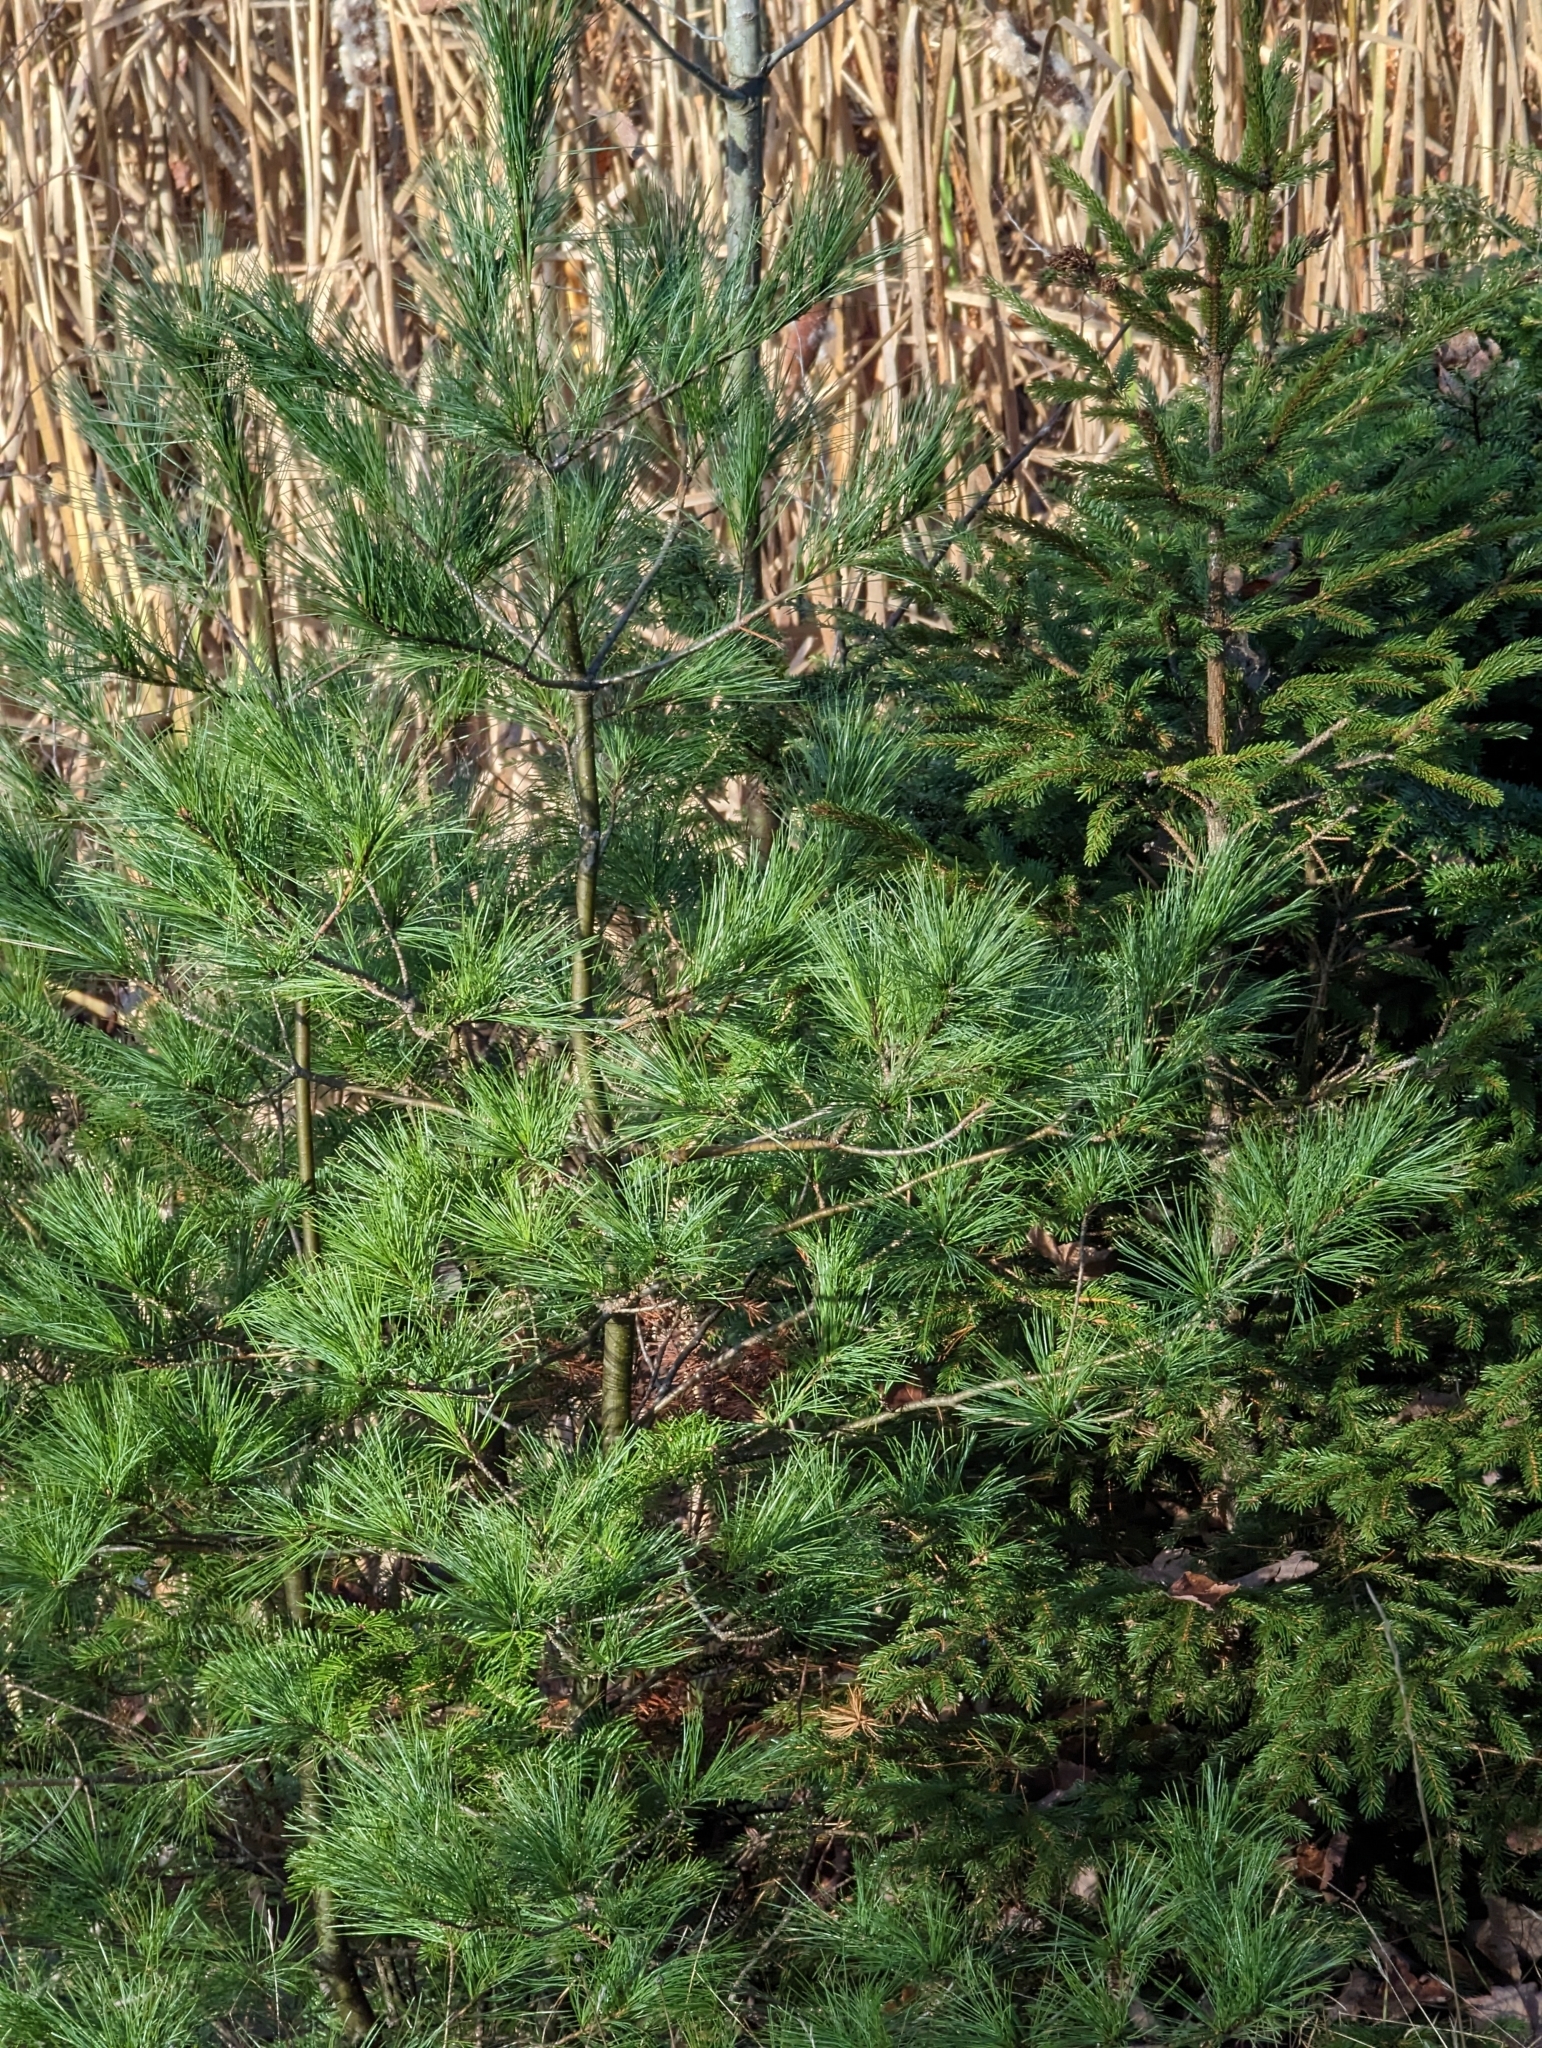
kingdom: Plantae
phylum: Tracheophyta
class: Pinopsida
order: Pinales
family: Pinaceae
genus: Pinus
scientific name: Pinus strobus
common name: Weymouth pine
